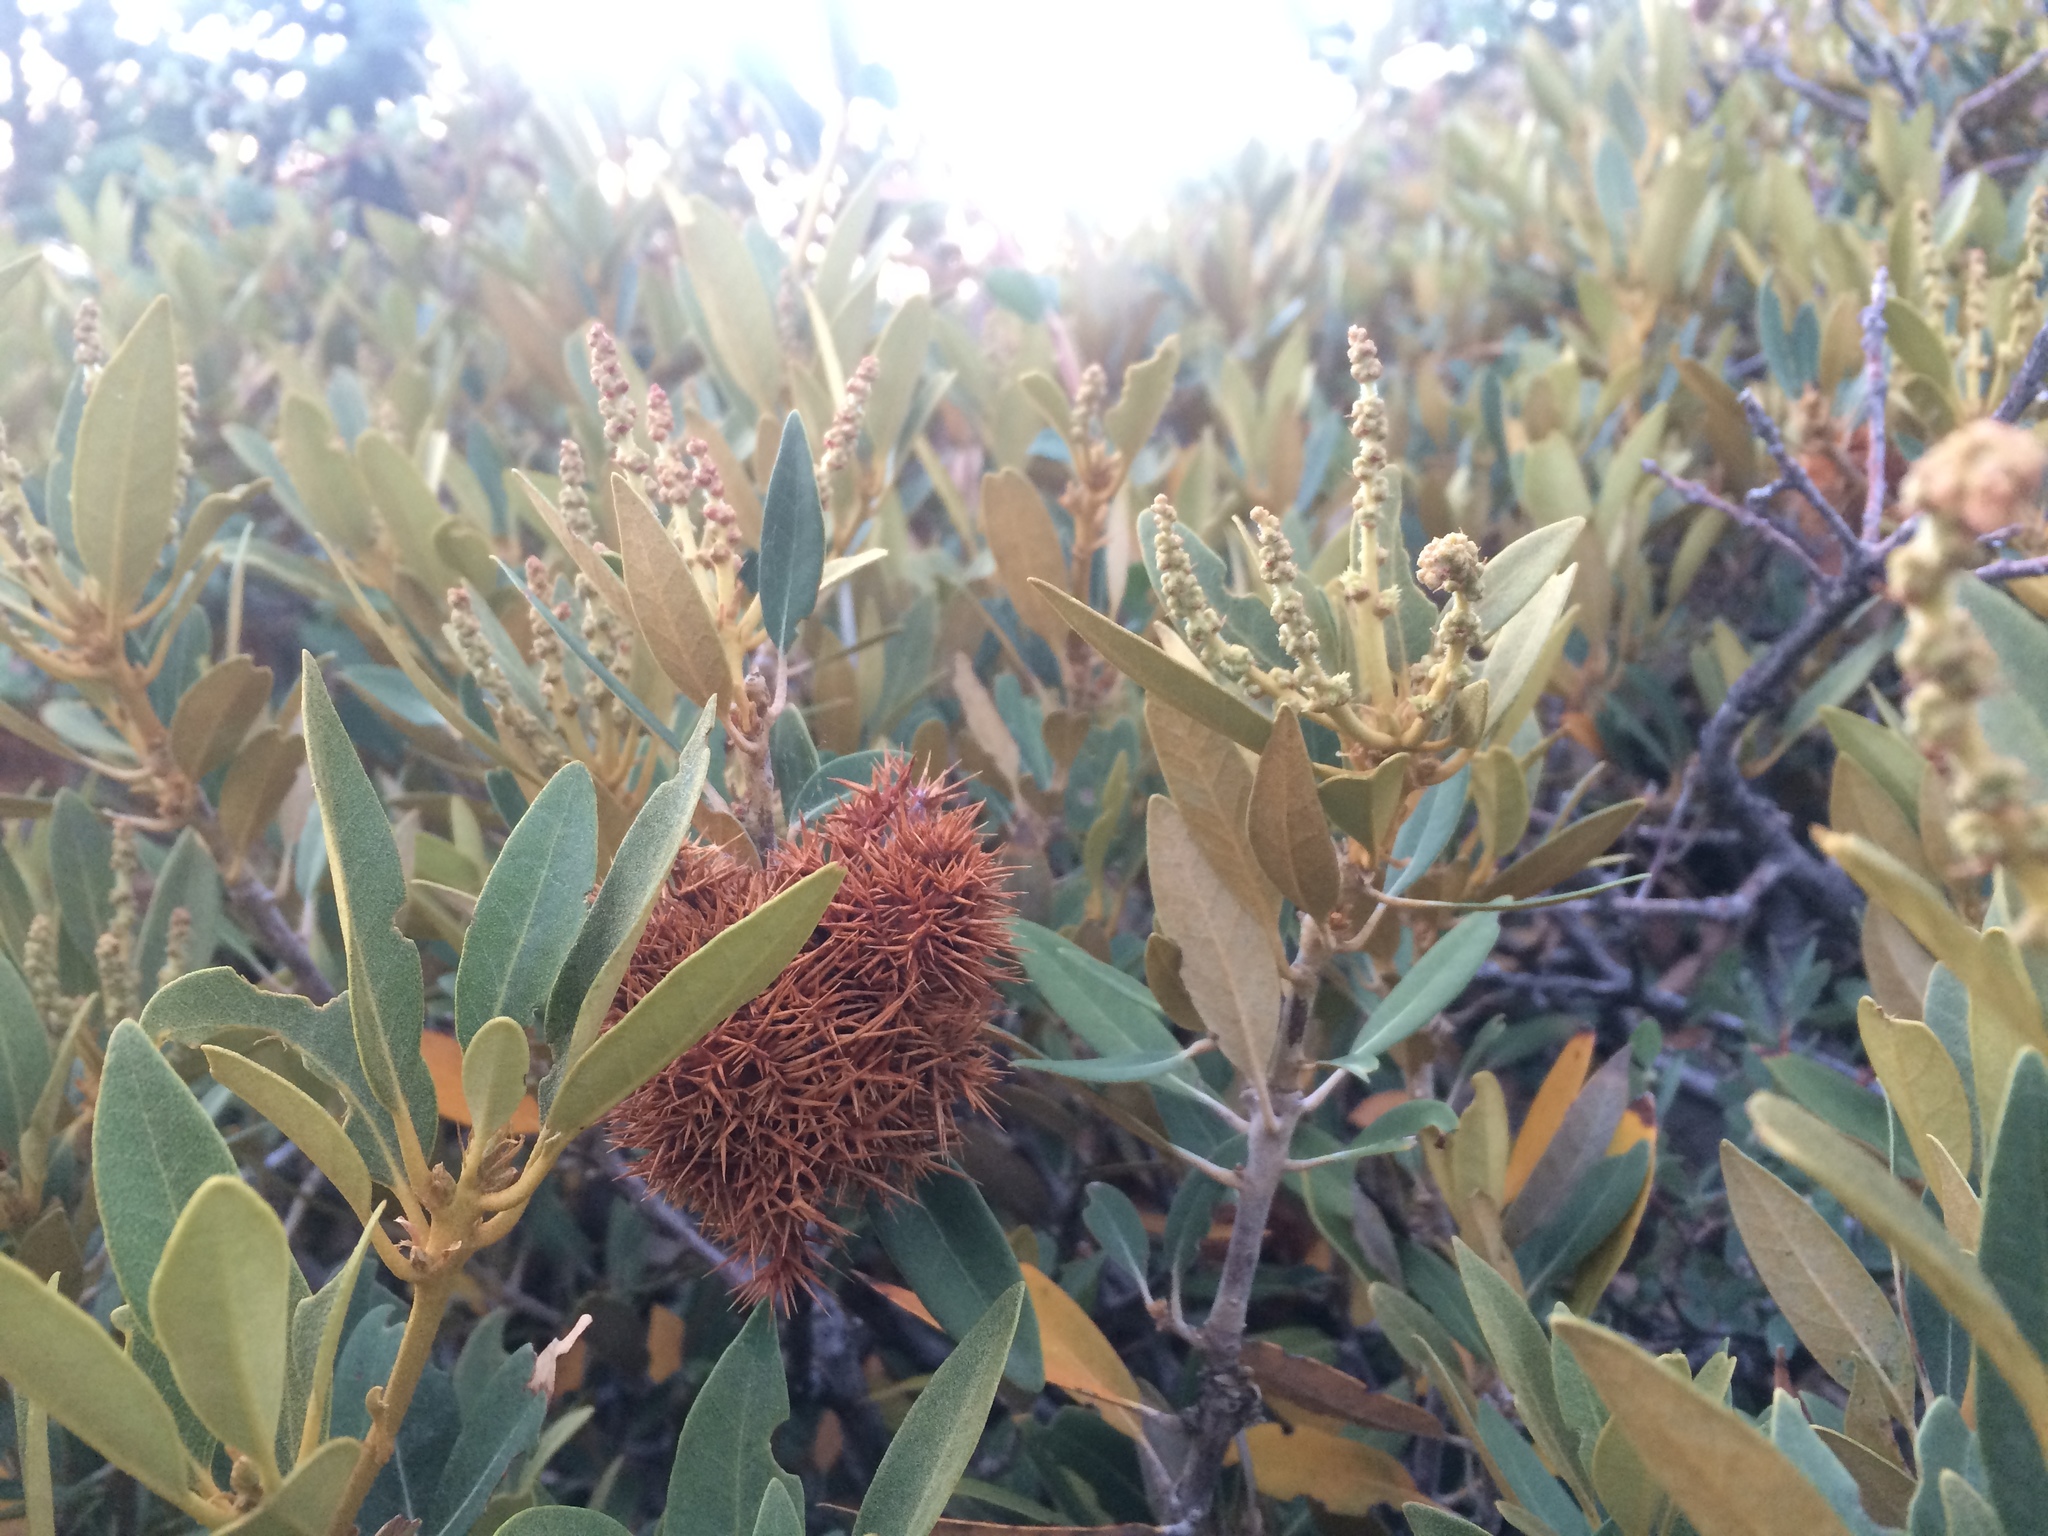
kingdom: Plantae
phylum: Tracheophyta
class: Magnoliopsida
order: Fagales
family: Fagaceae
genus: Chrysolepis
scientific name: Chrysolepis sempervirens
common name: Bush chinquapin
